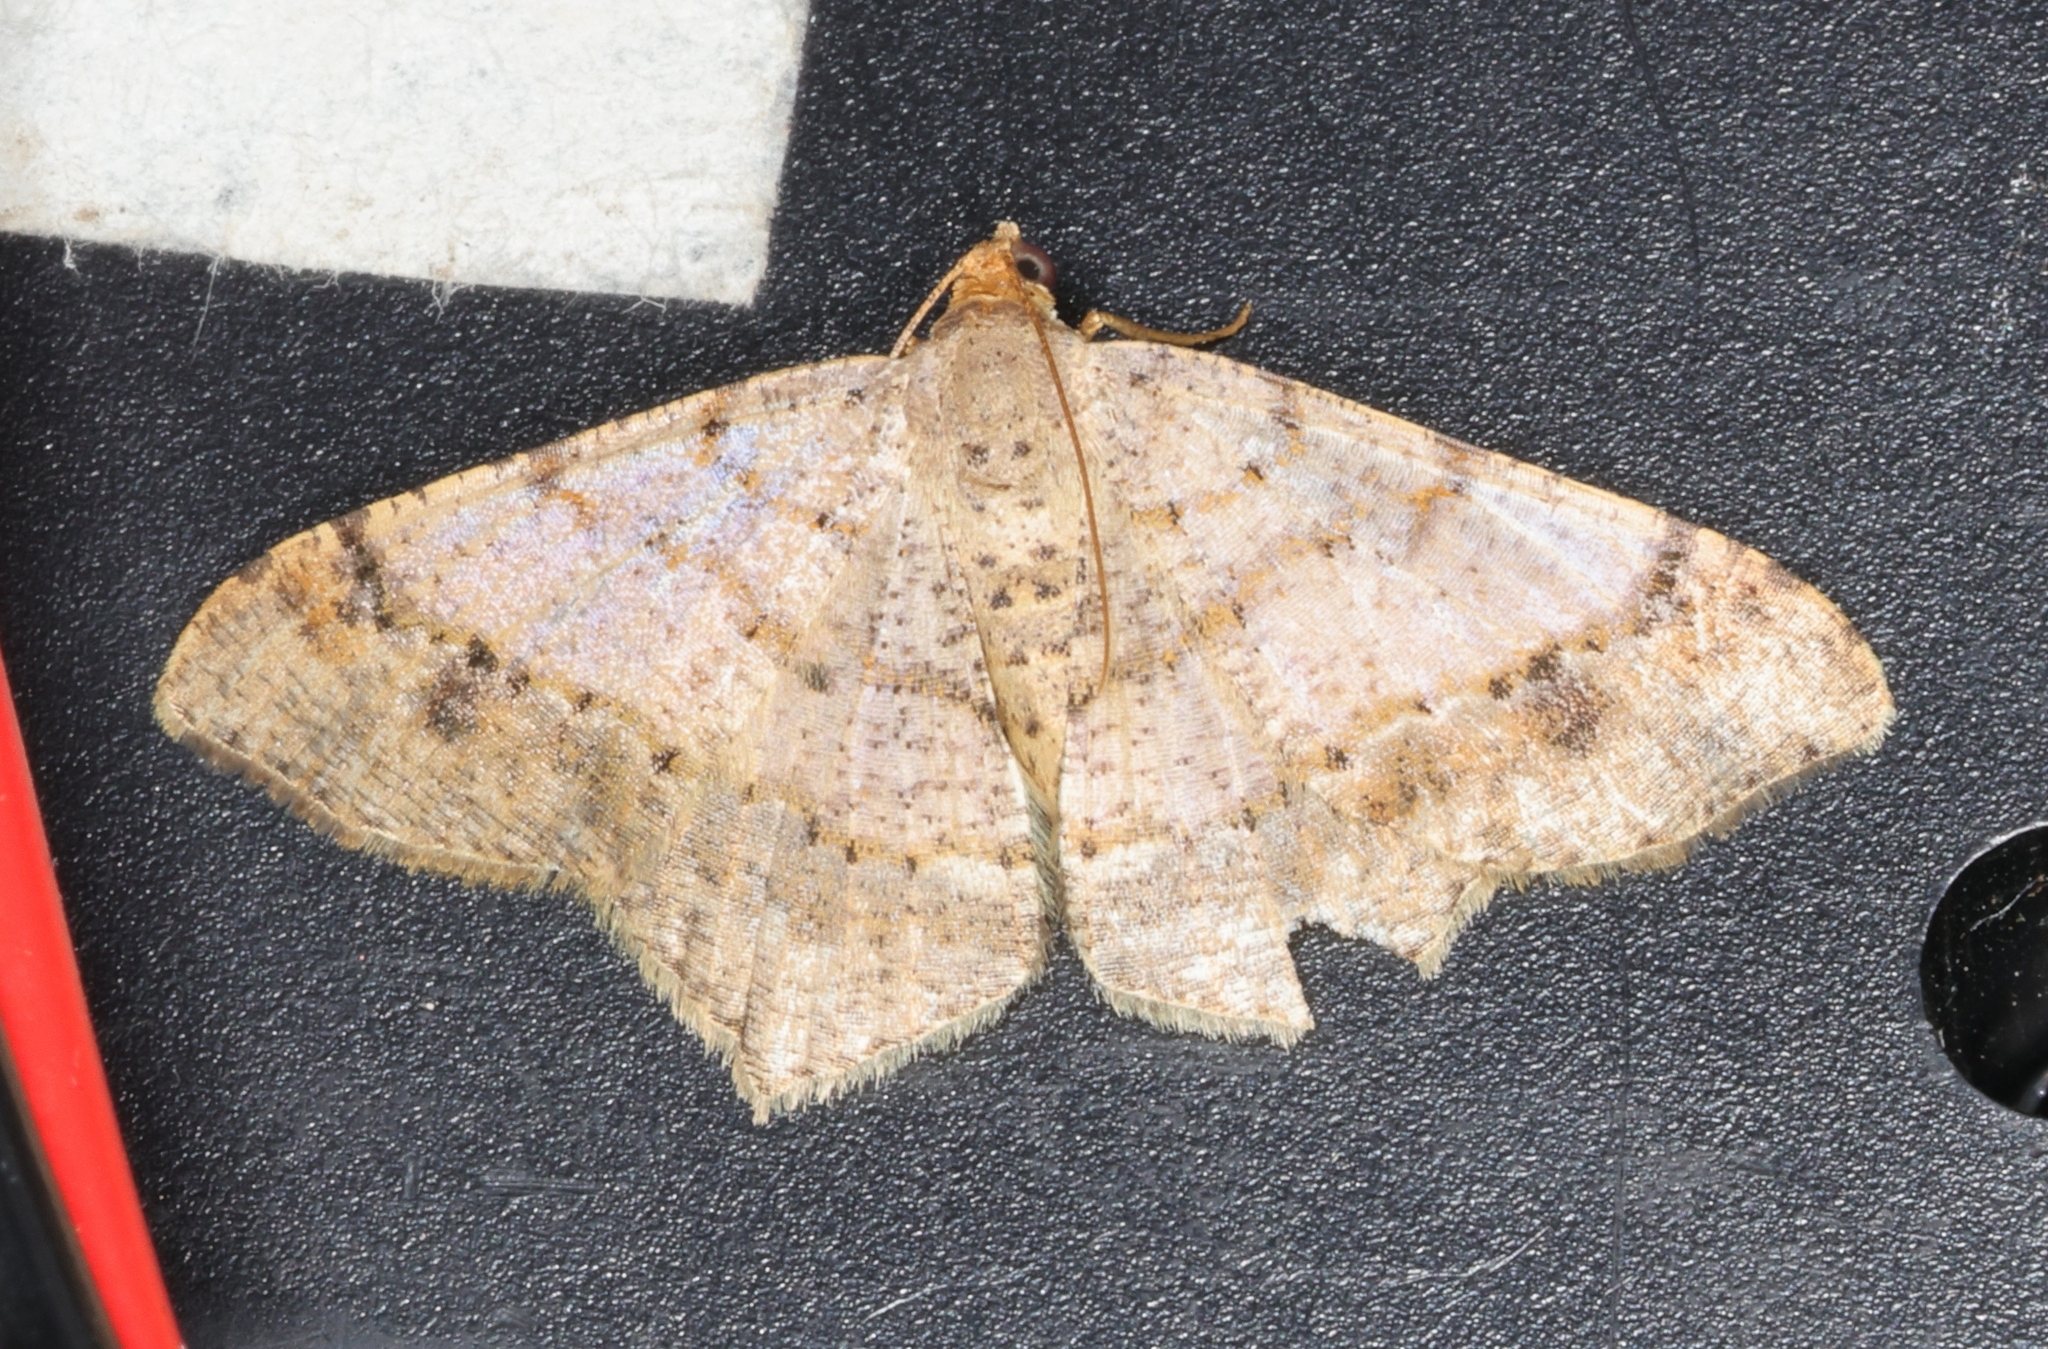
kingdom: Animalia
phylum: Arthropoda
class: Insecta
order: Lepidoptera
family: Geometridae
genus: Macaria
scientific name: Macaria abydata
